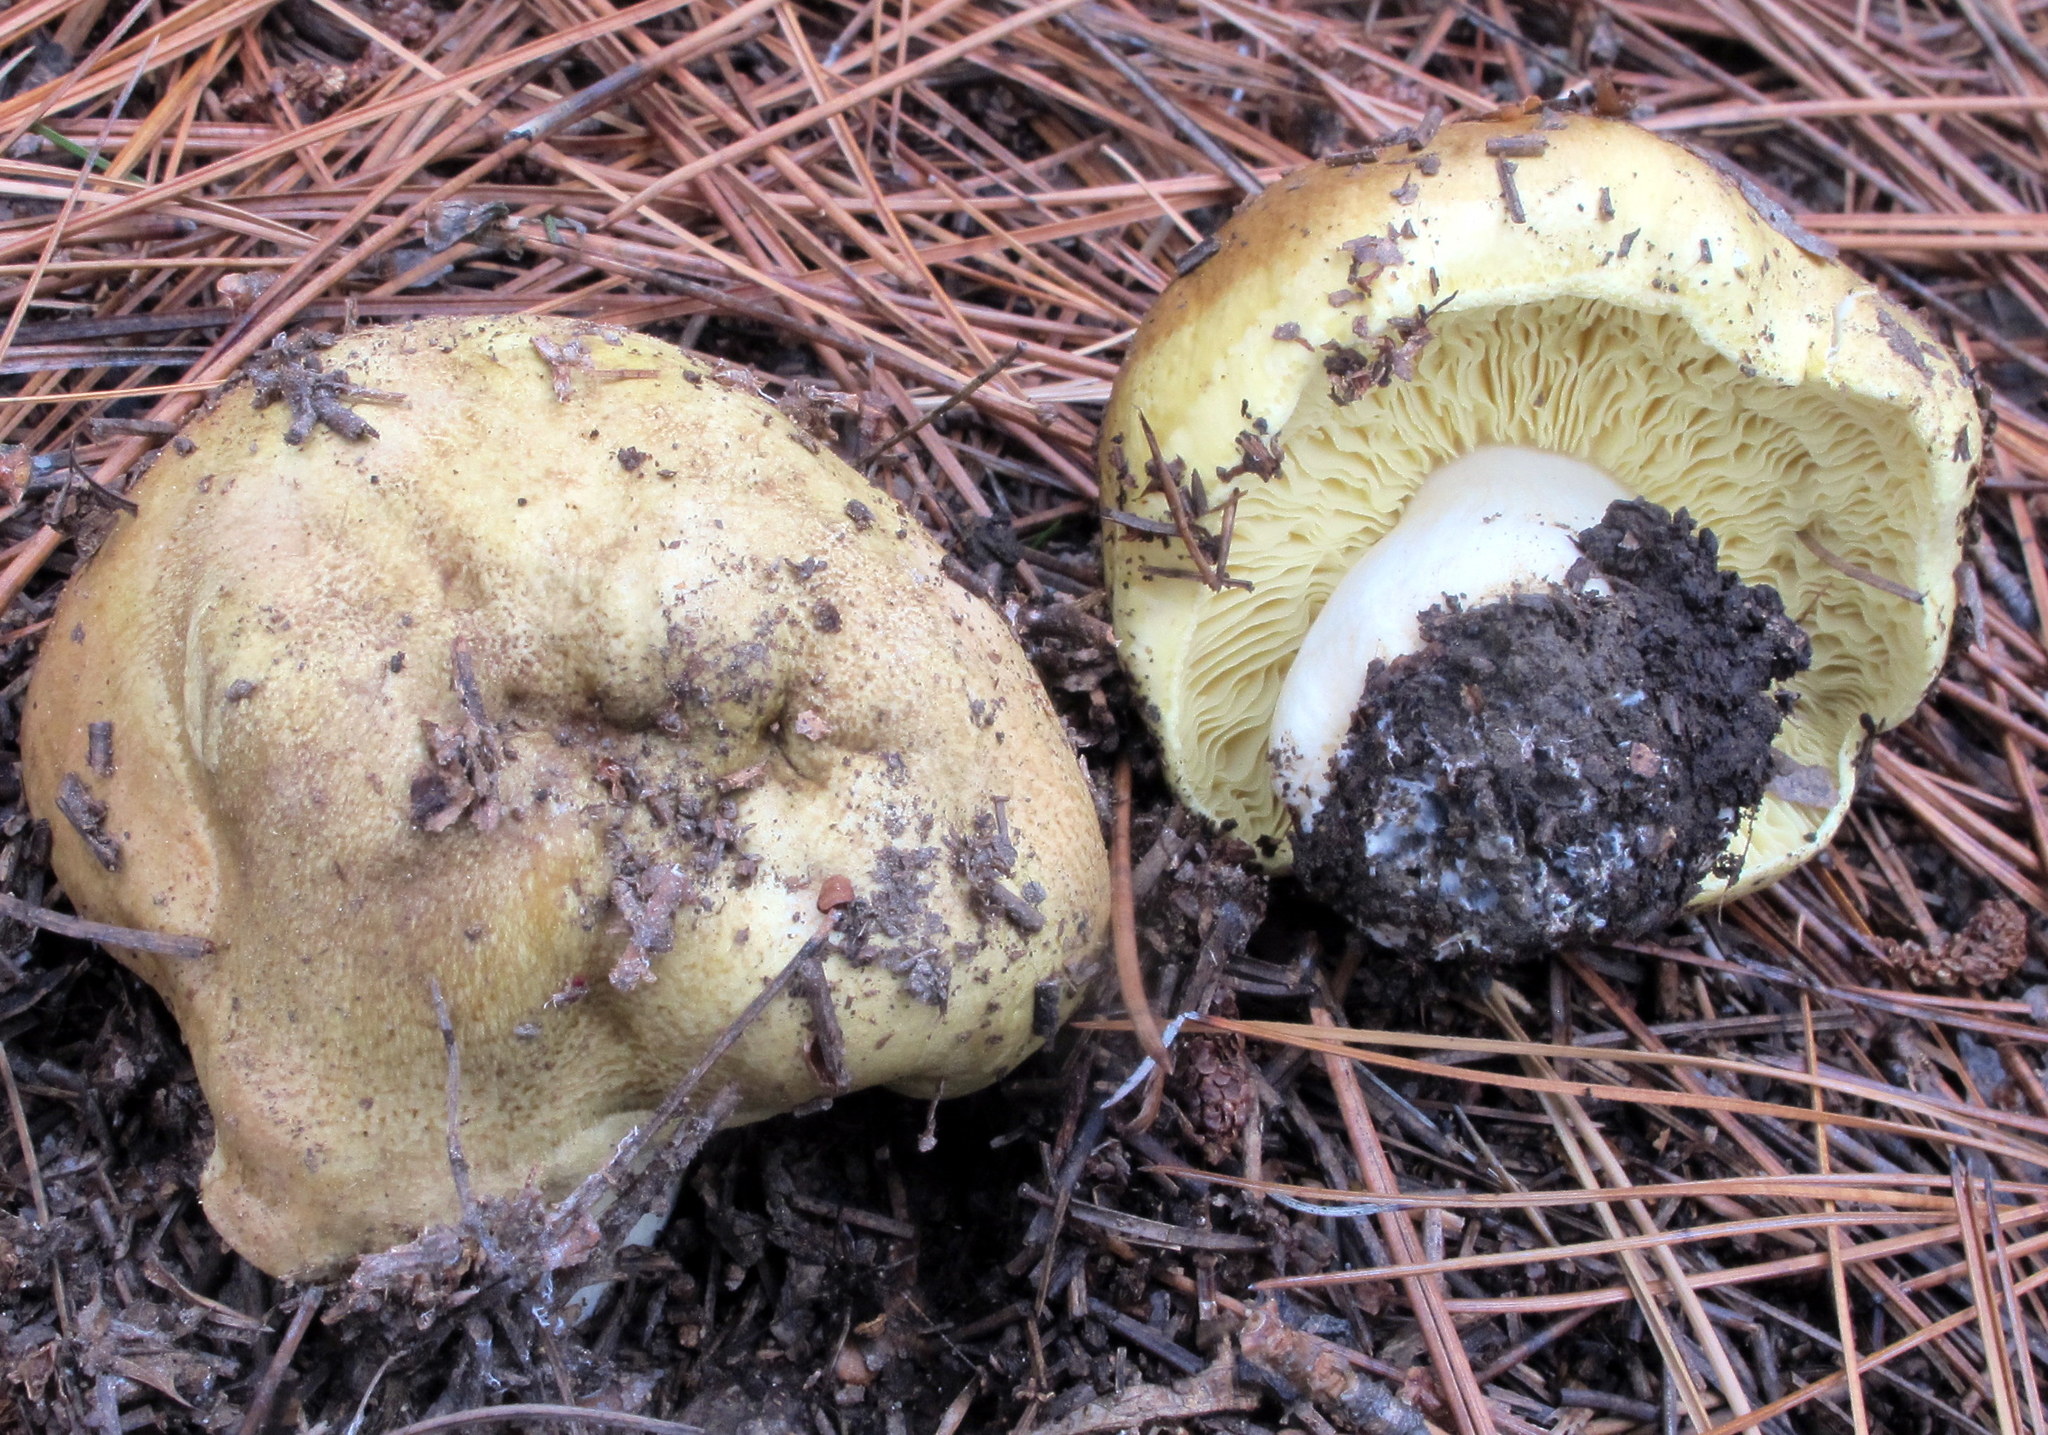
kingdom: Fungi
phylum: Basidiomycota
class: Agaricomycetes
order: Agaricales
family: Tricholomataceae
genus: Tricholoma
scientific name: Tricholoma equestre
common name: Yellow knight
